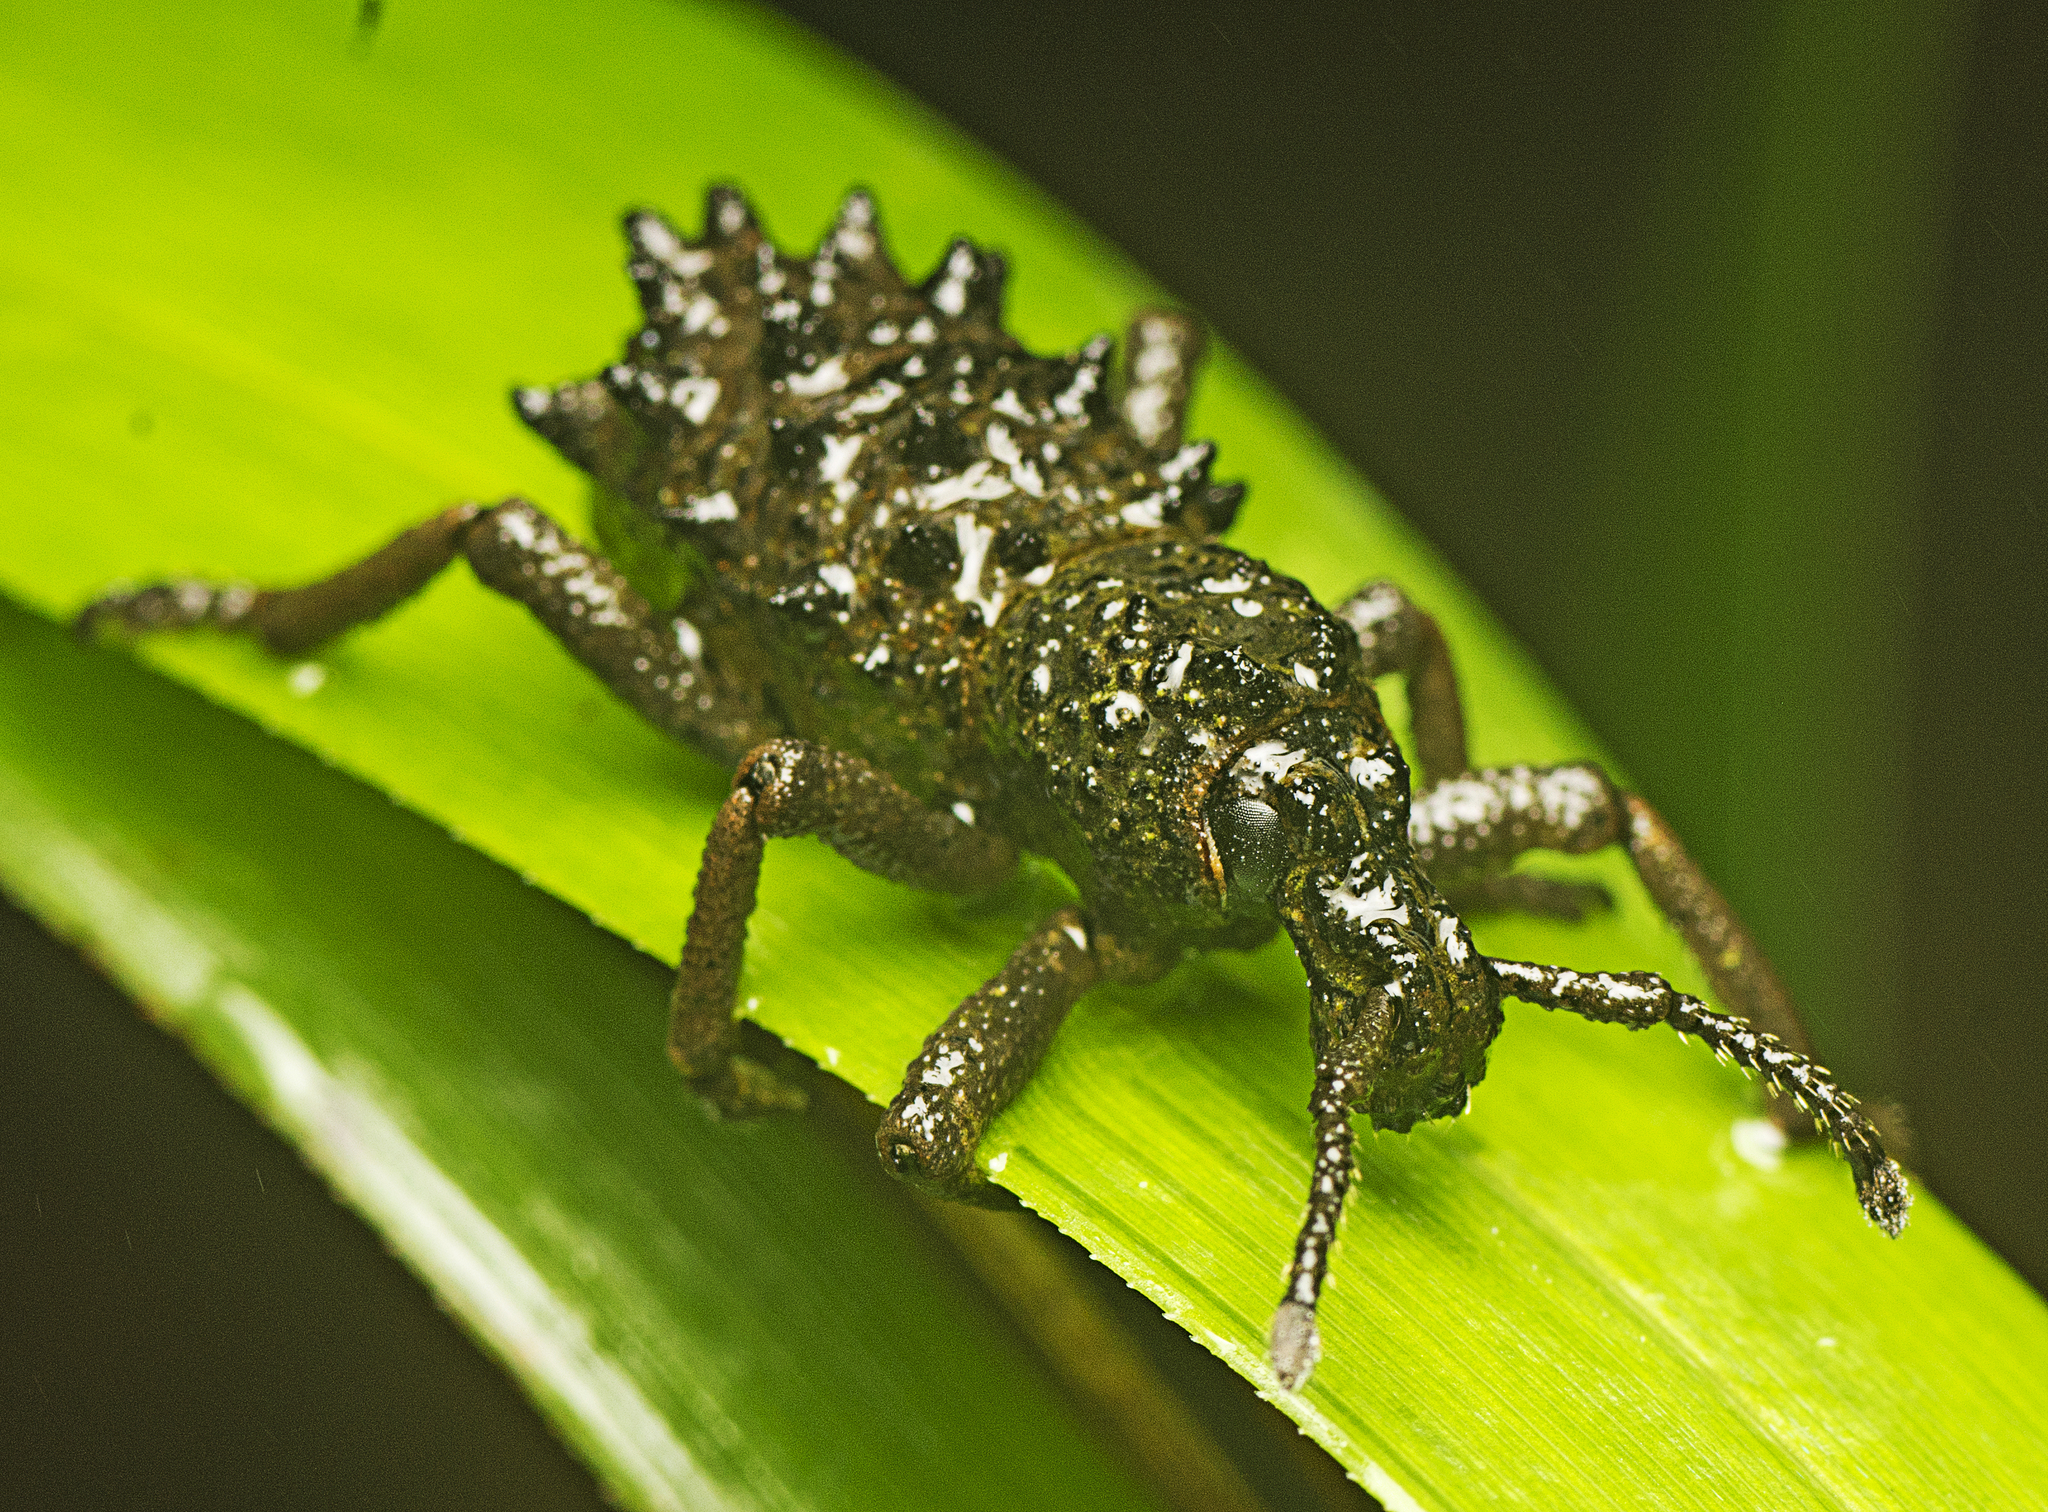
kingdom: Animalia
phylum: Arthropoda
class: Insecta
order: Coleoptera
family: Curculionidae
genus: Leptopius
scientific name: Leptopius baileyi
